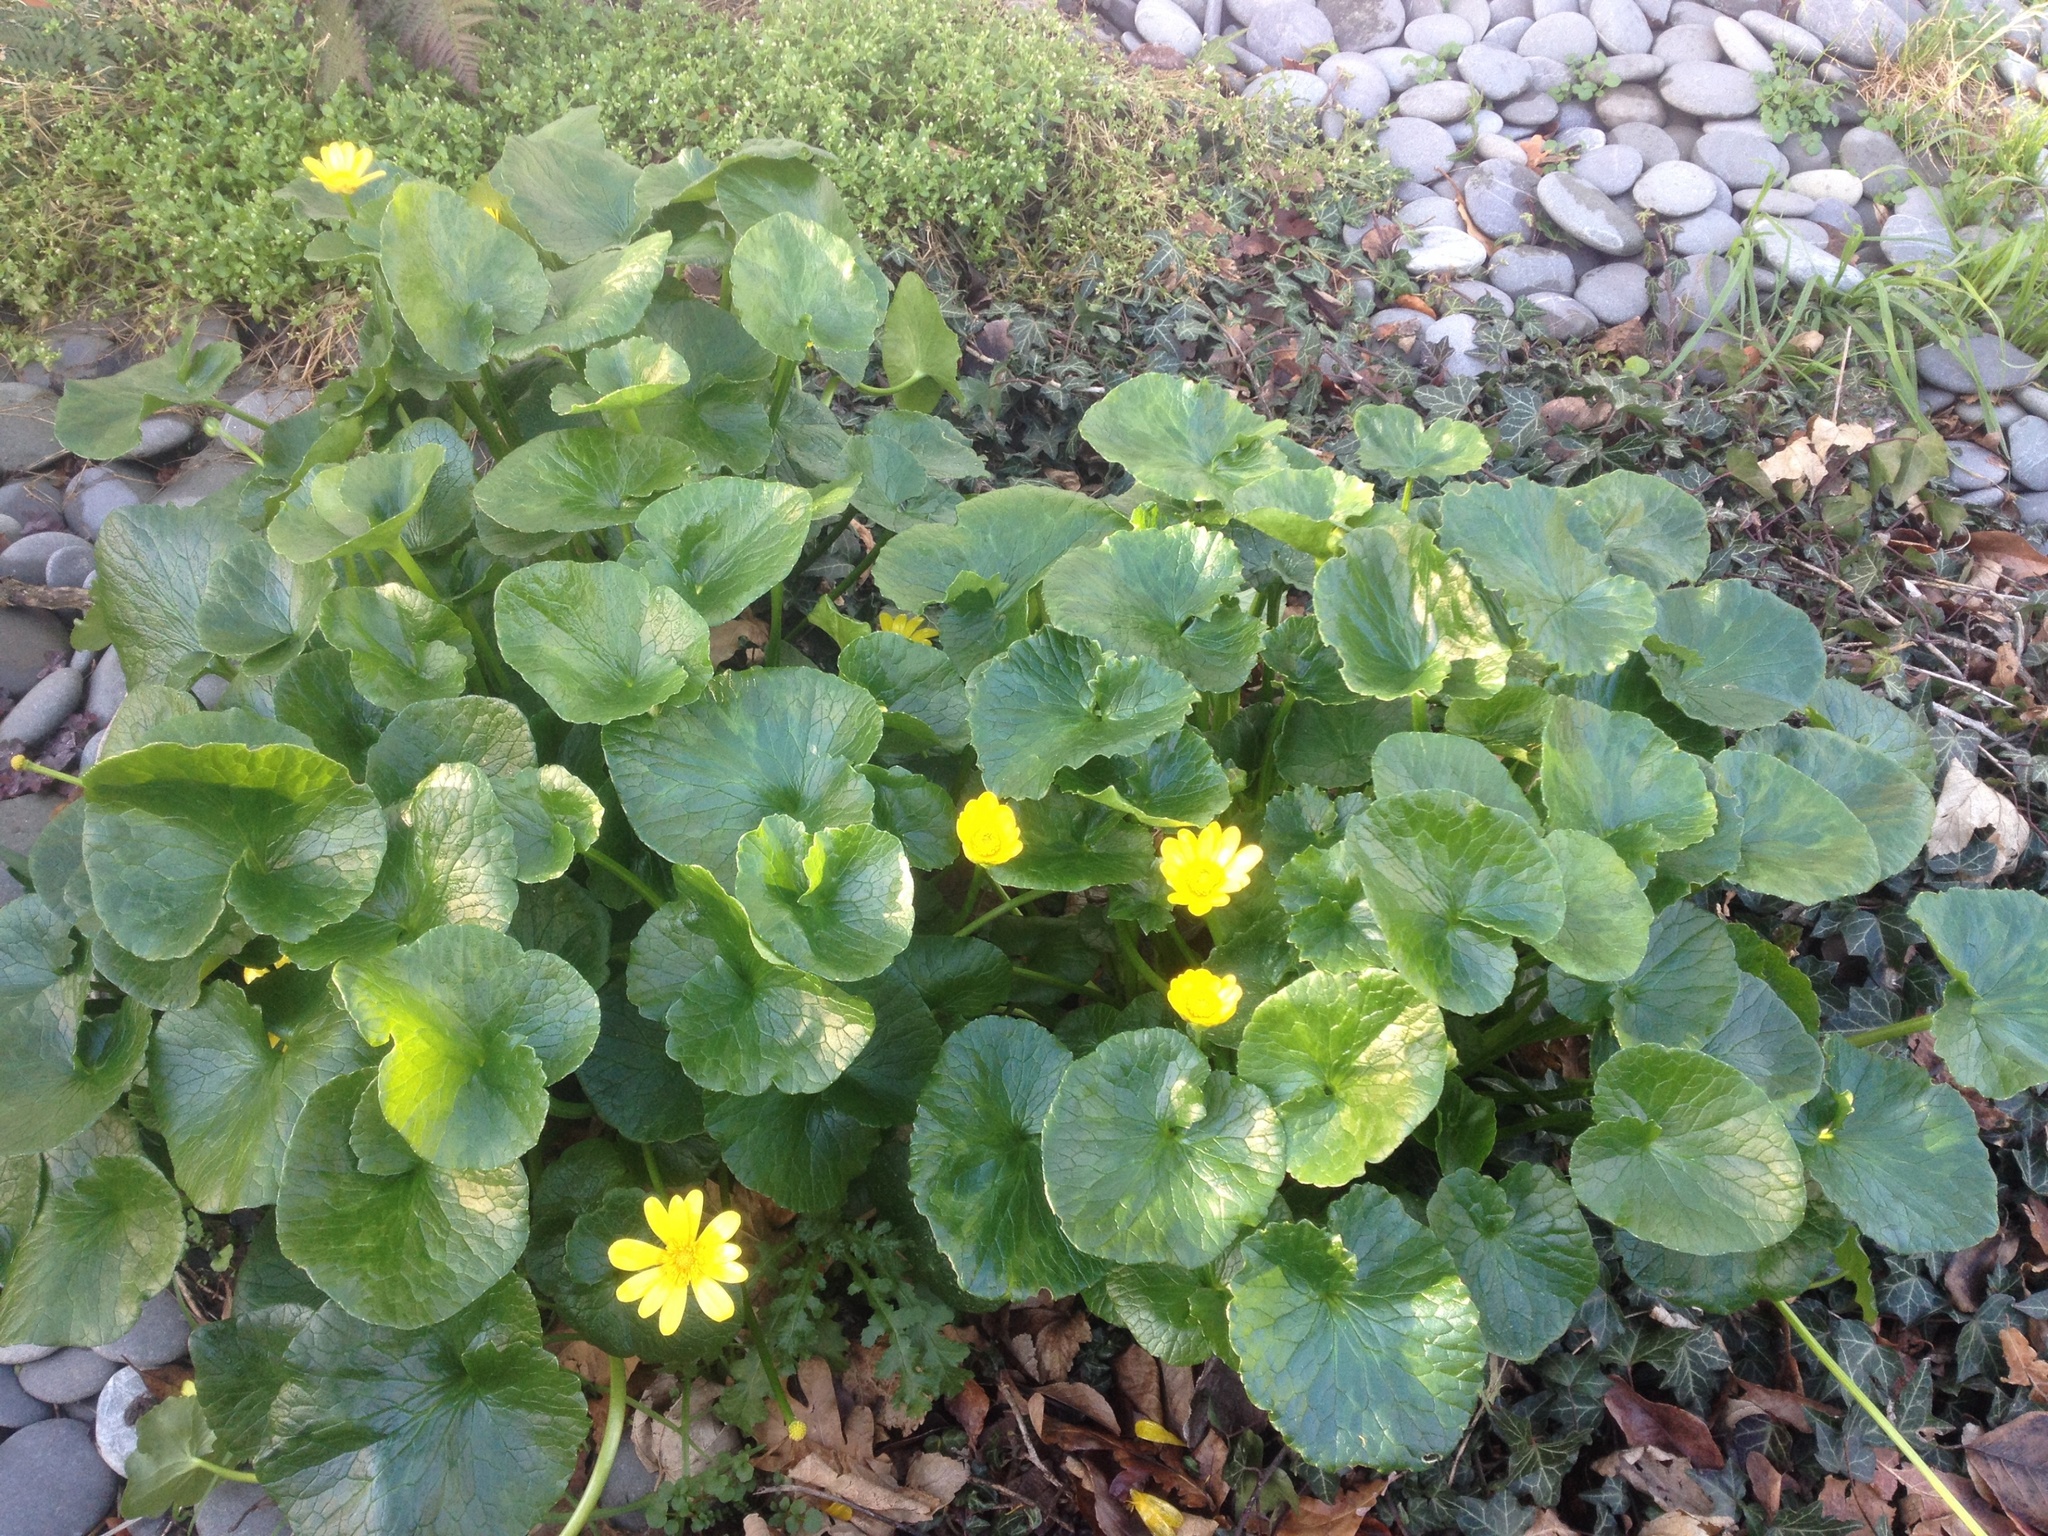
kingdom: Plantae
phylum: Tracheophyta
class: Magnoliopsida
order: Ranunculales
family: Ranunculaceae
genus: Ficaria
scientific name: Ficaria grandiflora
